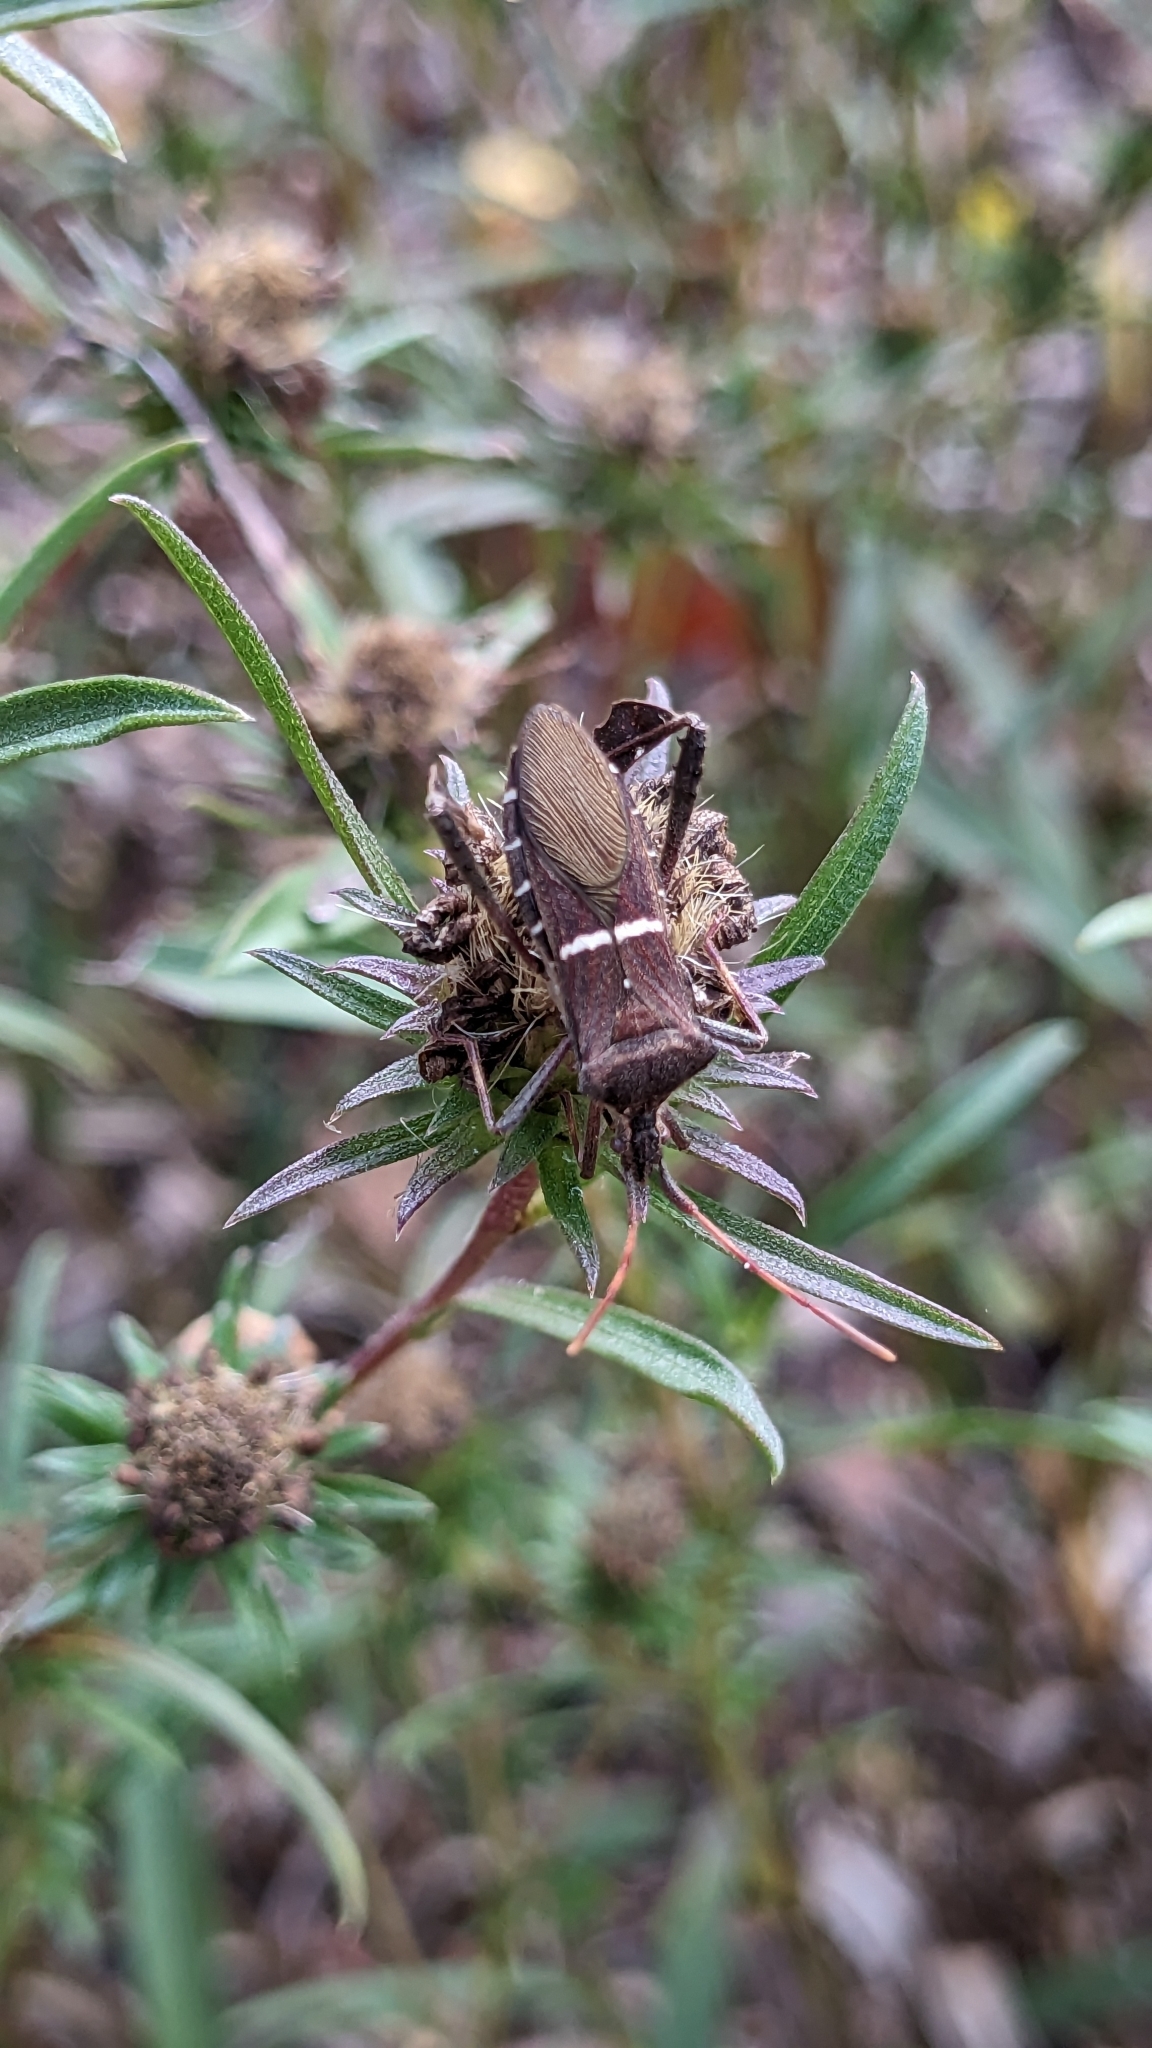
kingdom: Animalia
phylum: Arthropoda
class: Insecta
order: Hemiptera
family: Coreidae
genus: Leptoglossus
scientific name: Leptoglossus phyllopus
